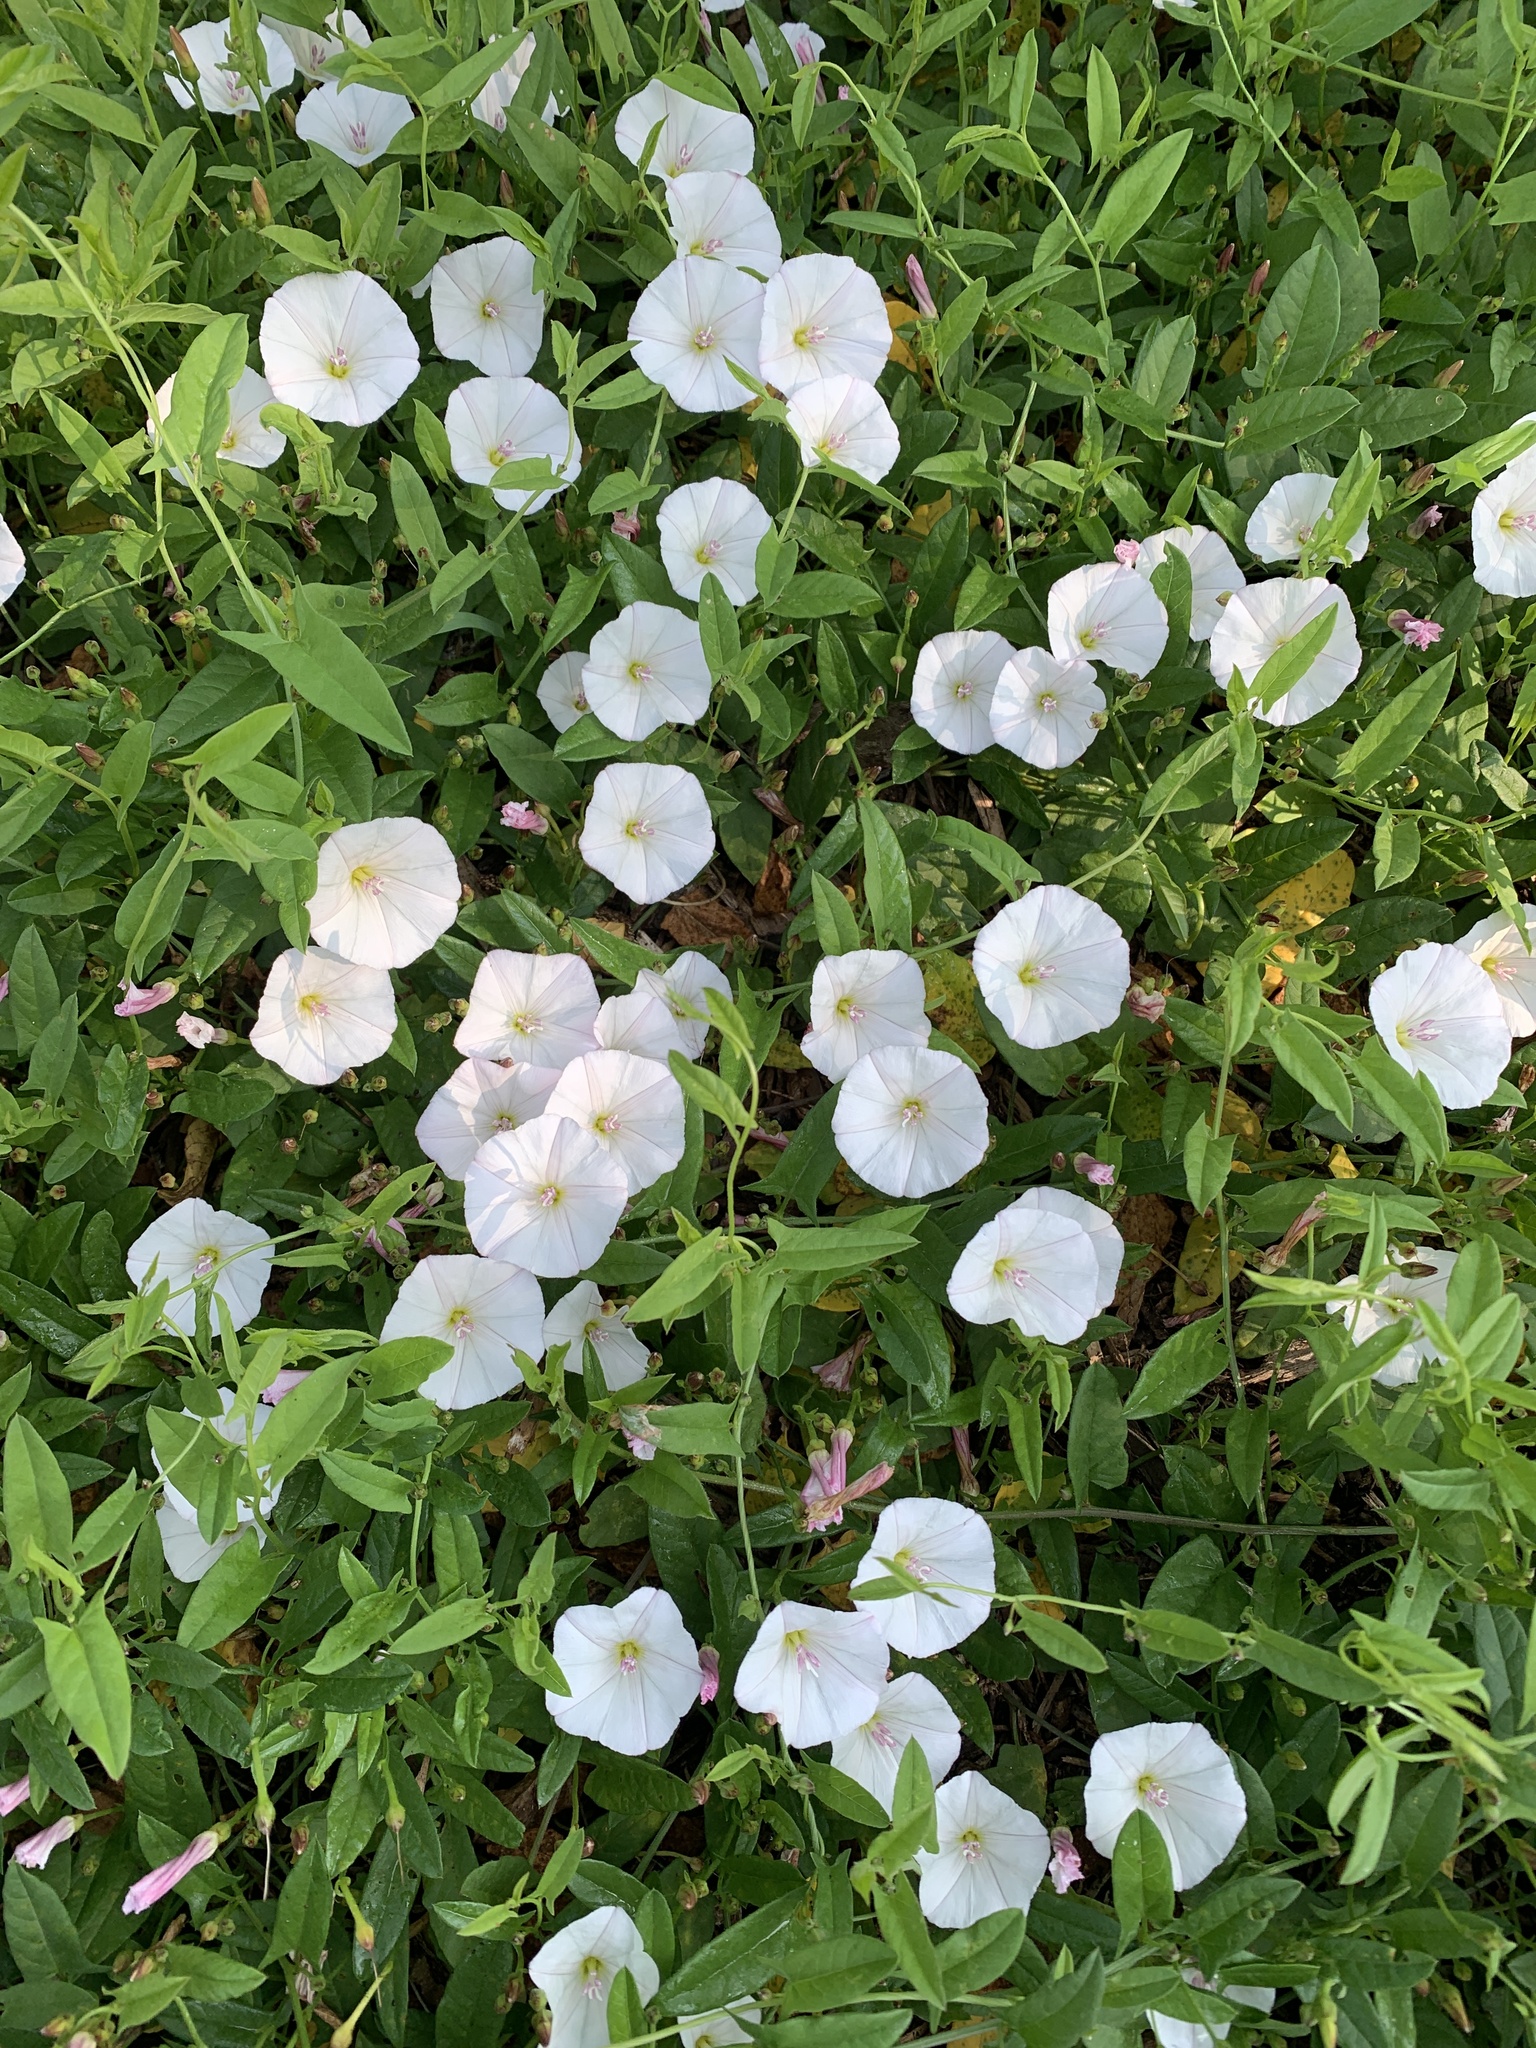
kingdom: Plantae
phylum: Tracheophyta
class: Magnoliopsida
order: Solanales
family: Convolvulaceae
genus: Convolvulus
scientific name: Convolvulus arvensis
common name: Field bindweed
